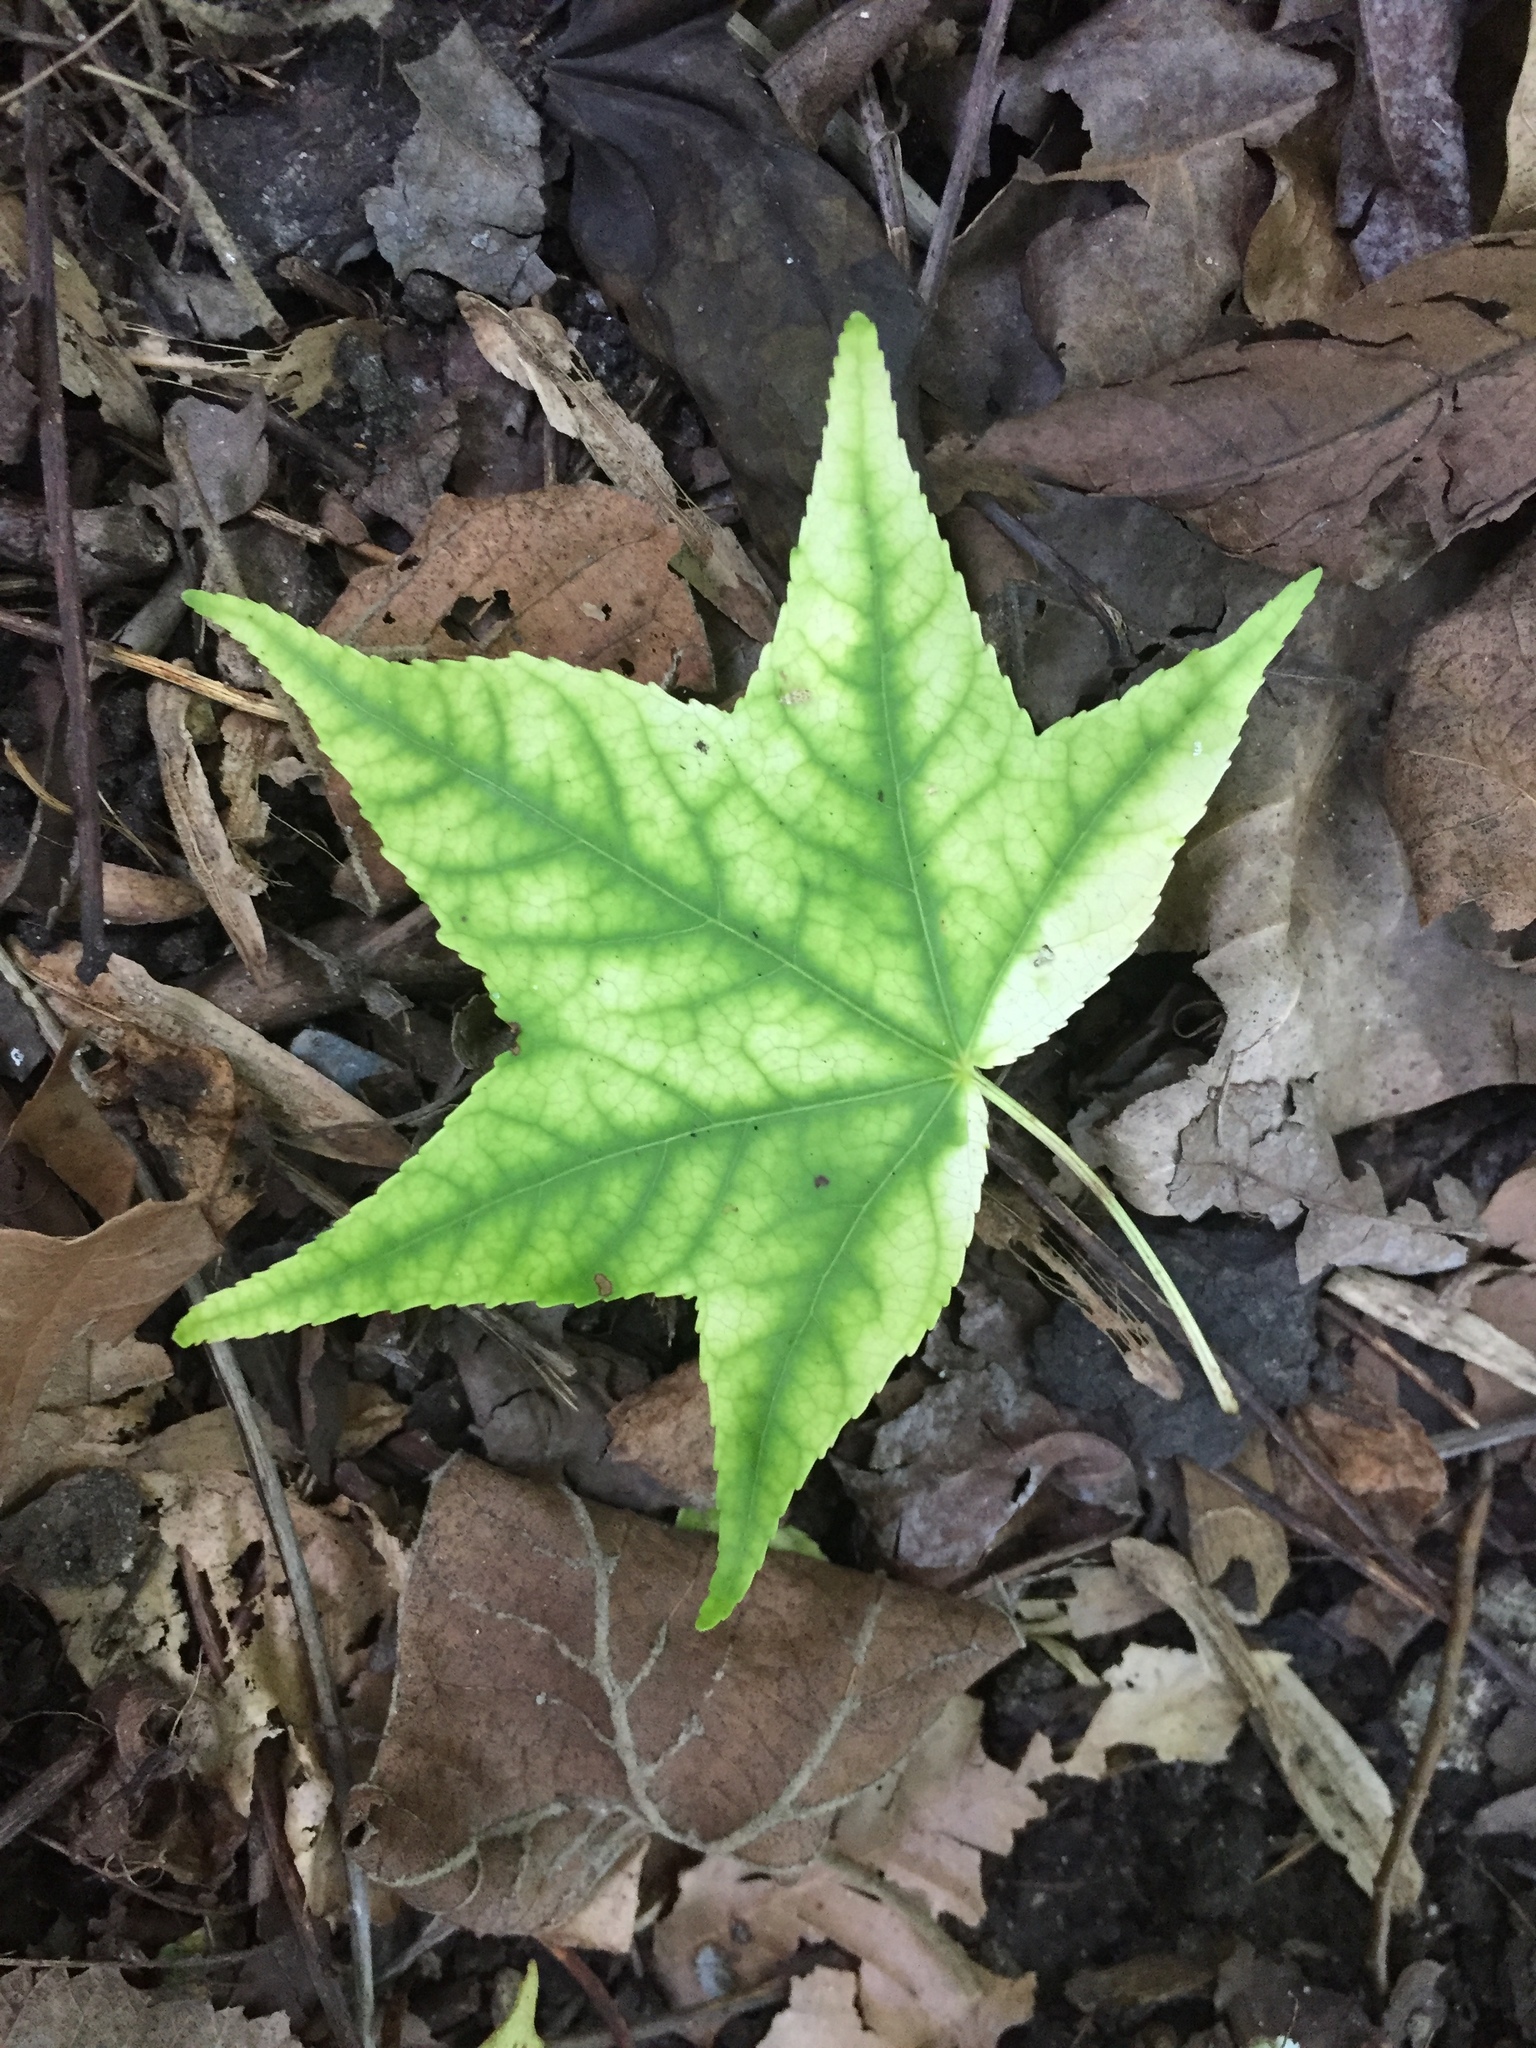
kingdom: Plantae
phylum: Tracheophyta
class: Magnoliopsida
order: Saxifragales
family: Altingiaceae
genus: Liquidambar
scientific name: Liquidambar styraciflua
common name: Sweet gum
